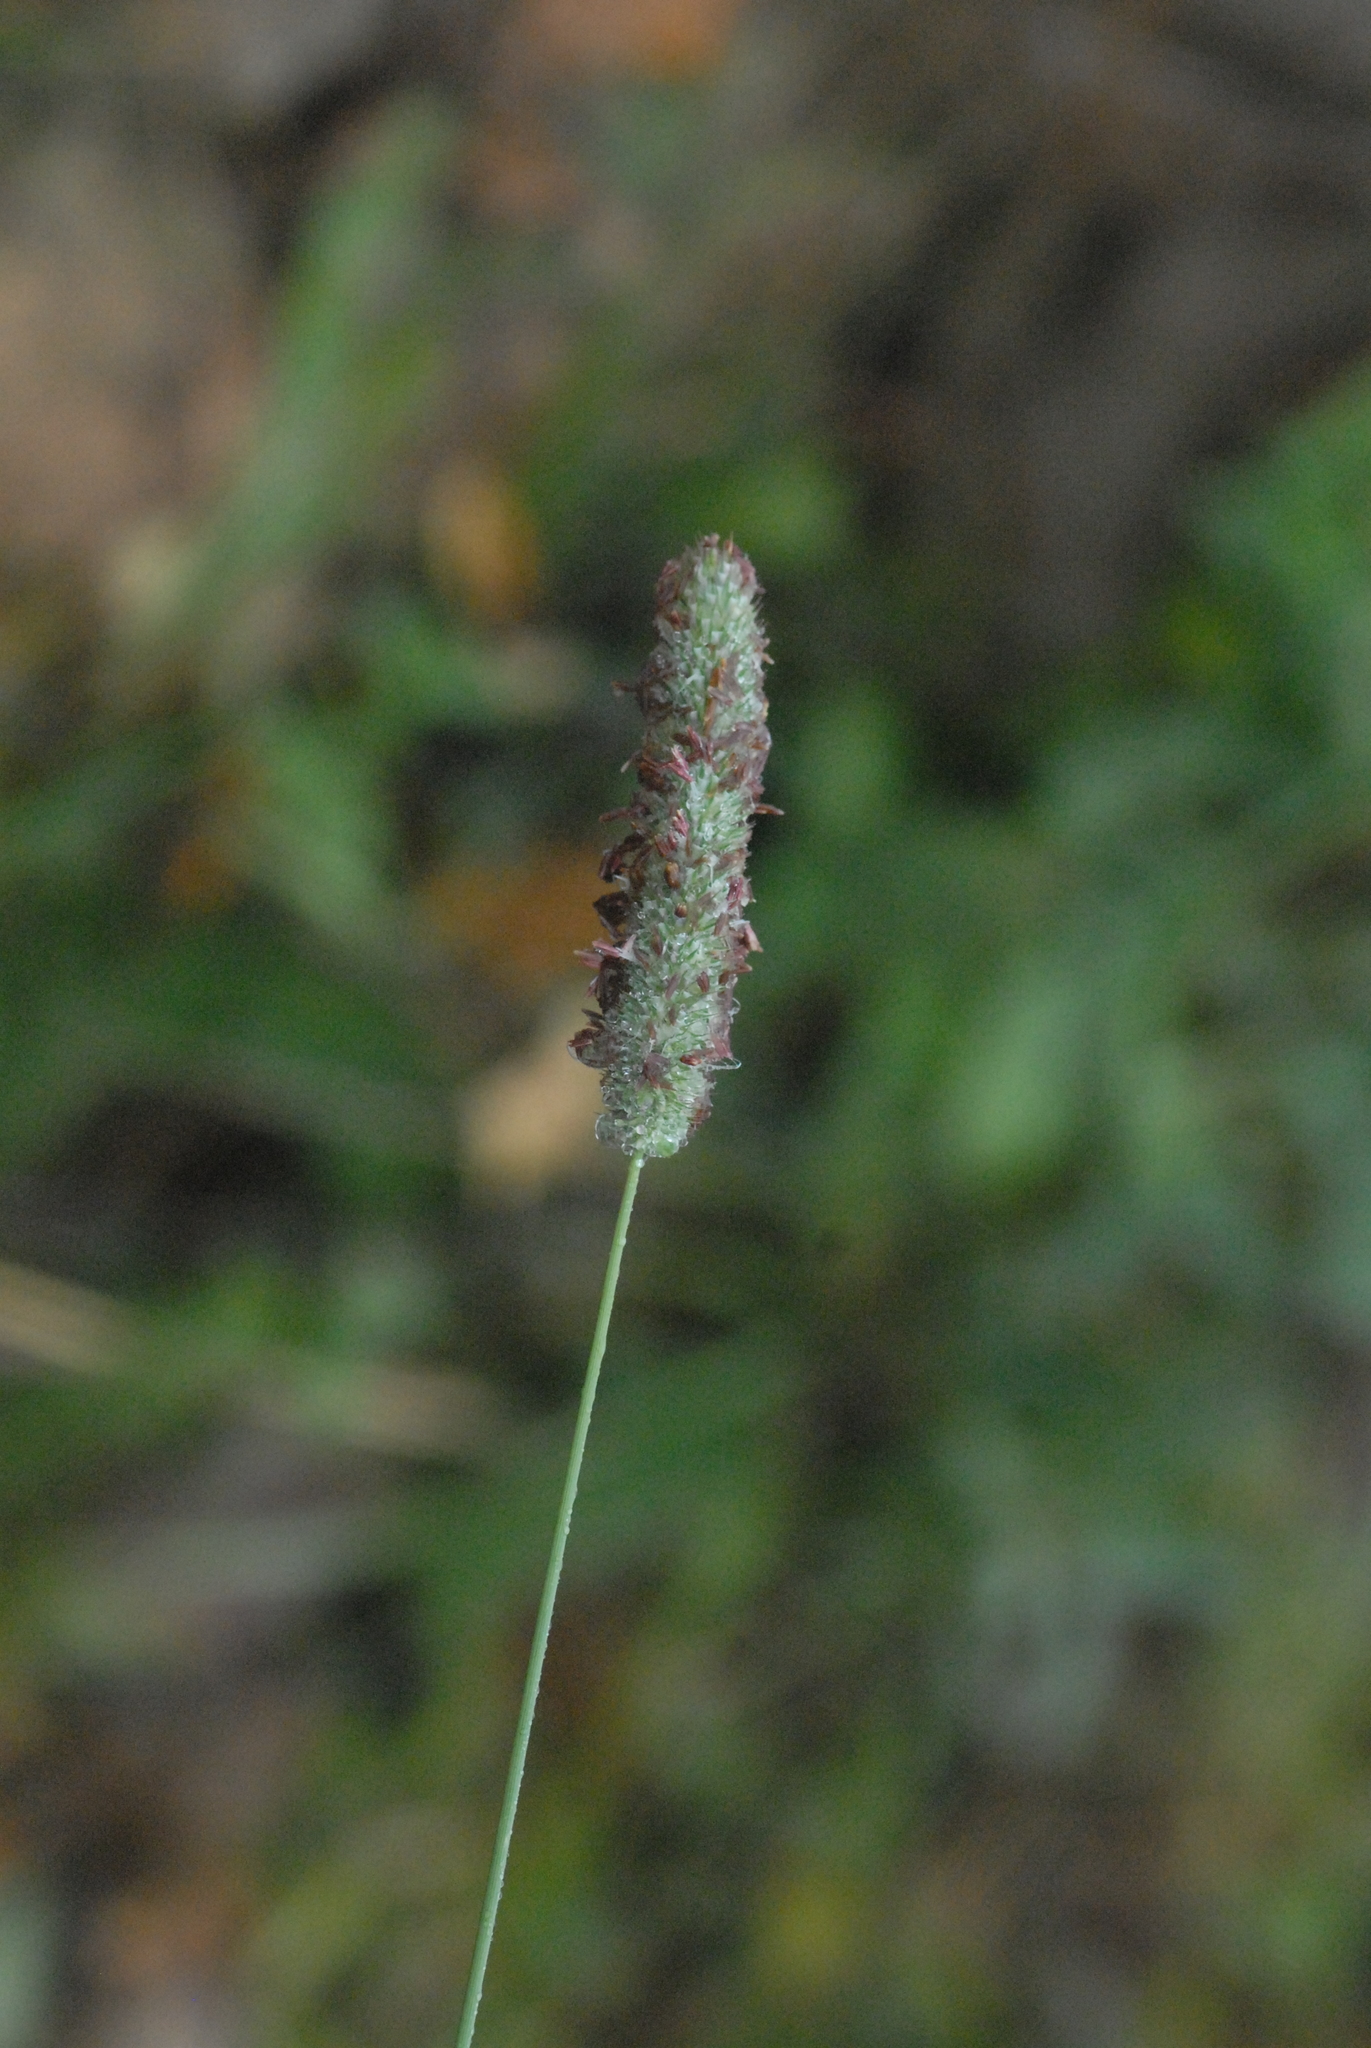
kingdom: Plantae
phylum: Tracheophyta
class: Liliopsida
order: Poales
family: Poaceae
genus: Phleum
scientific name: Phleum pratense
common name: Timothy grass
